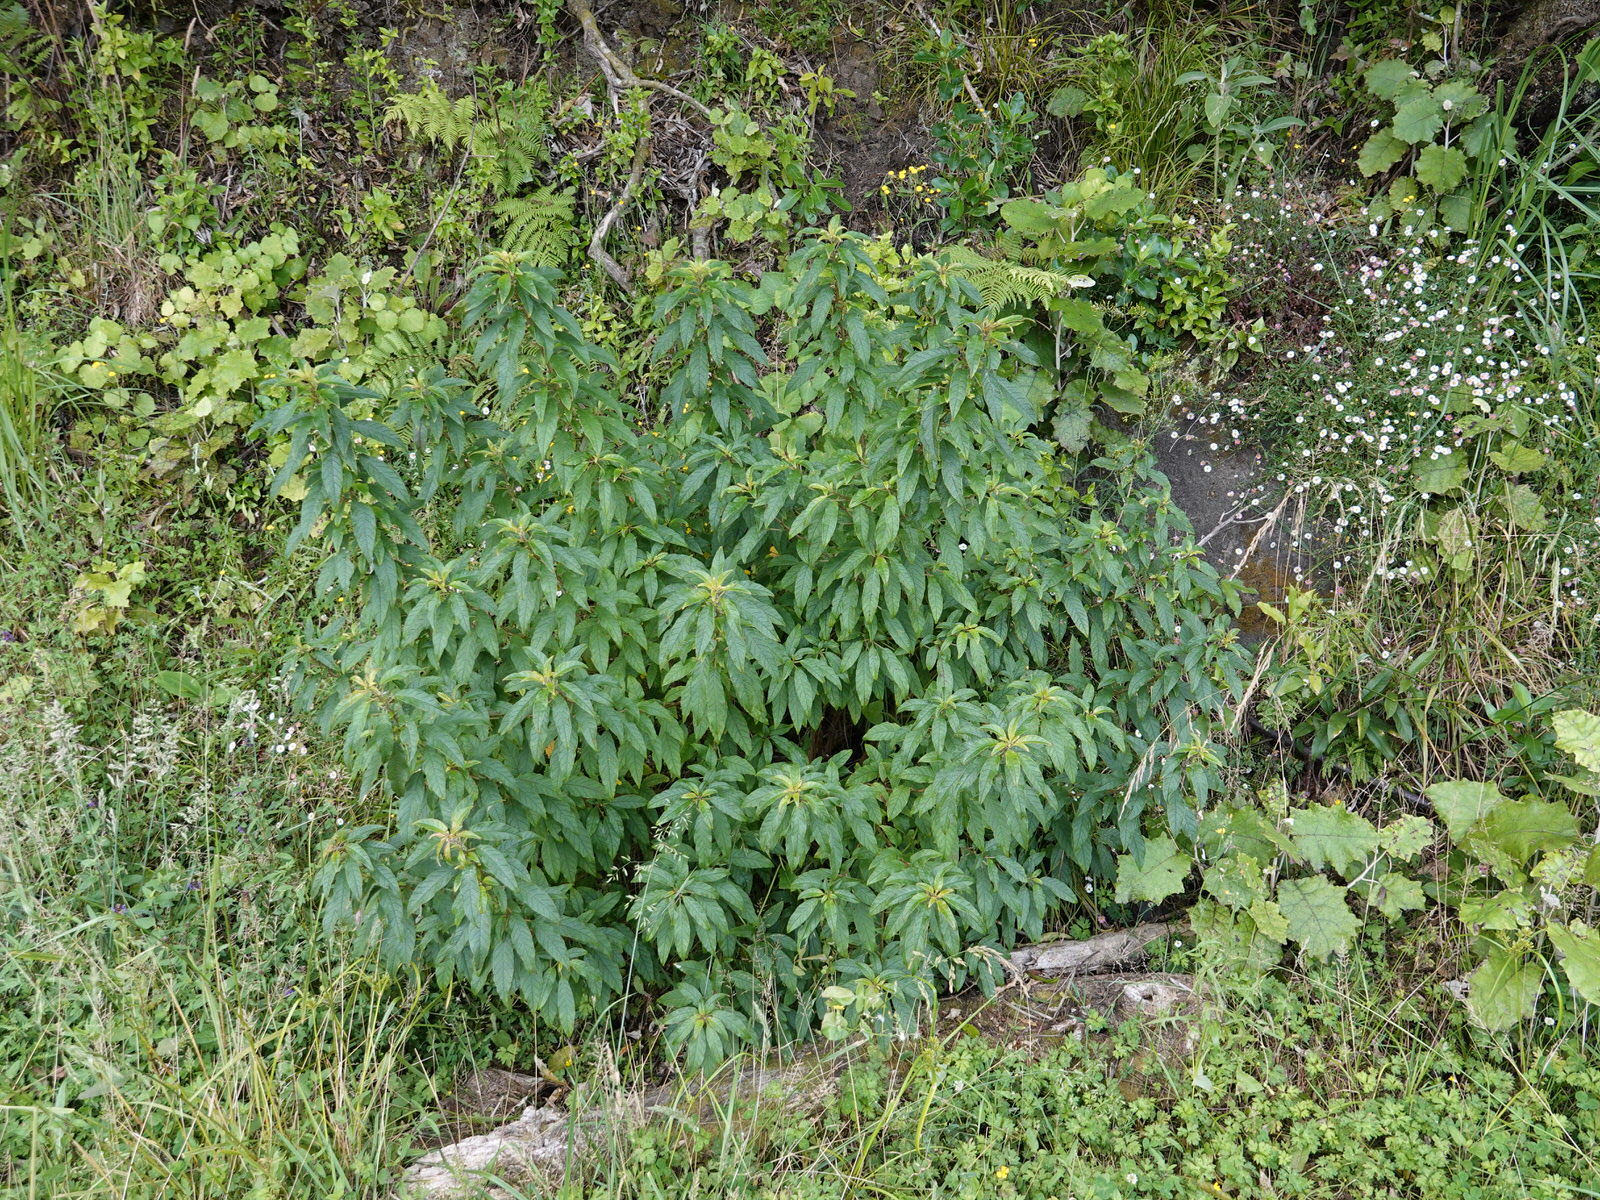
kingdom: Plantae
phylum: Tracheophyta
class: Magnoliopsida
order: Myrtales
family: Onagraceae
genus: Fuchsia
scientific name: Fuchsia excorticata
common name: Tree fuchsia
